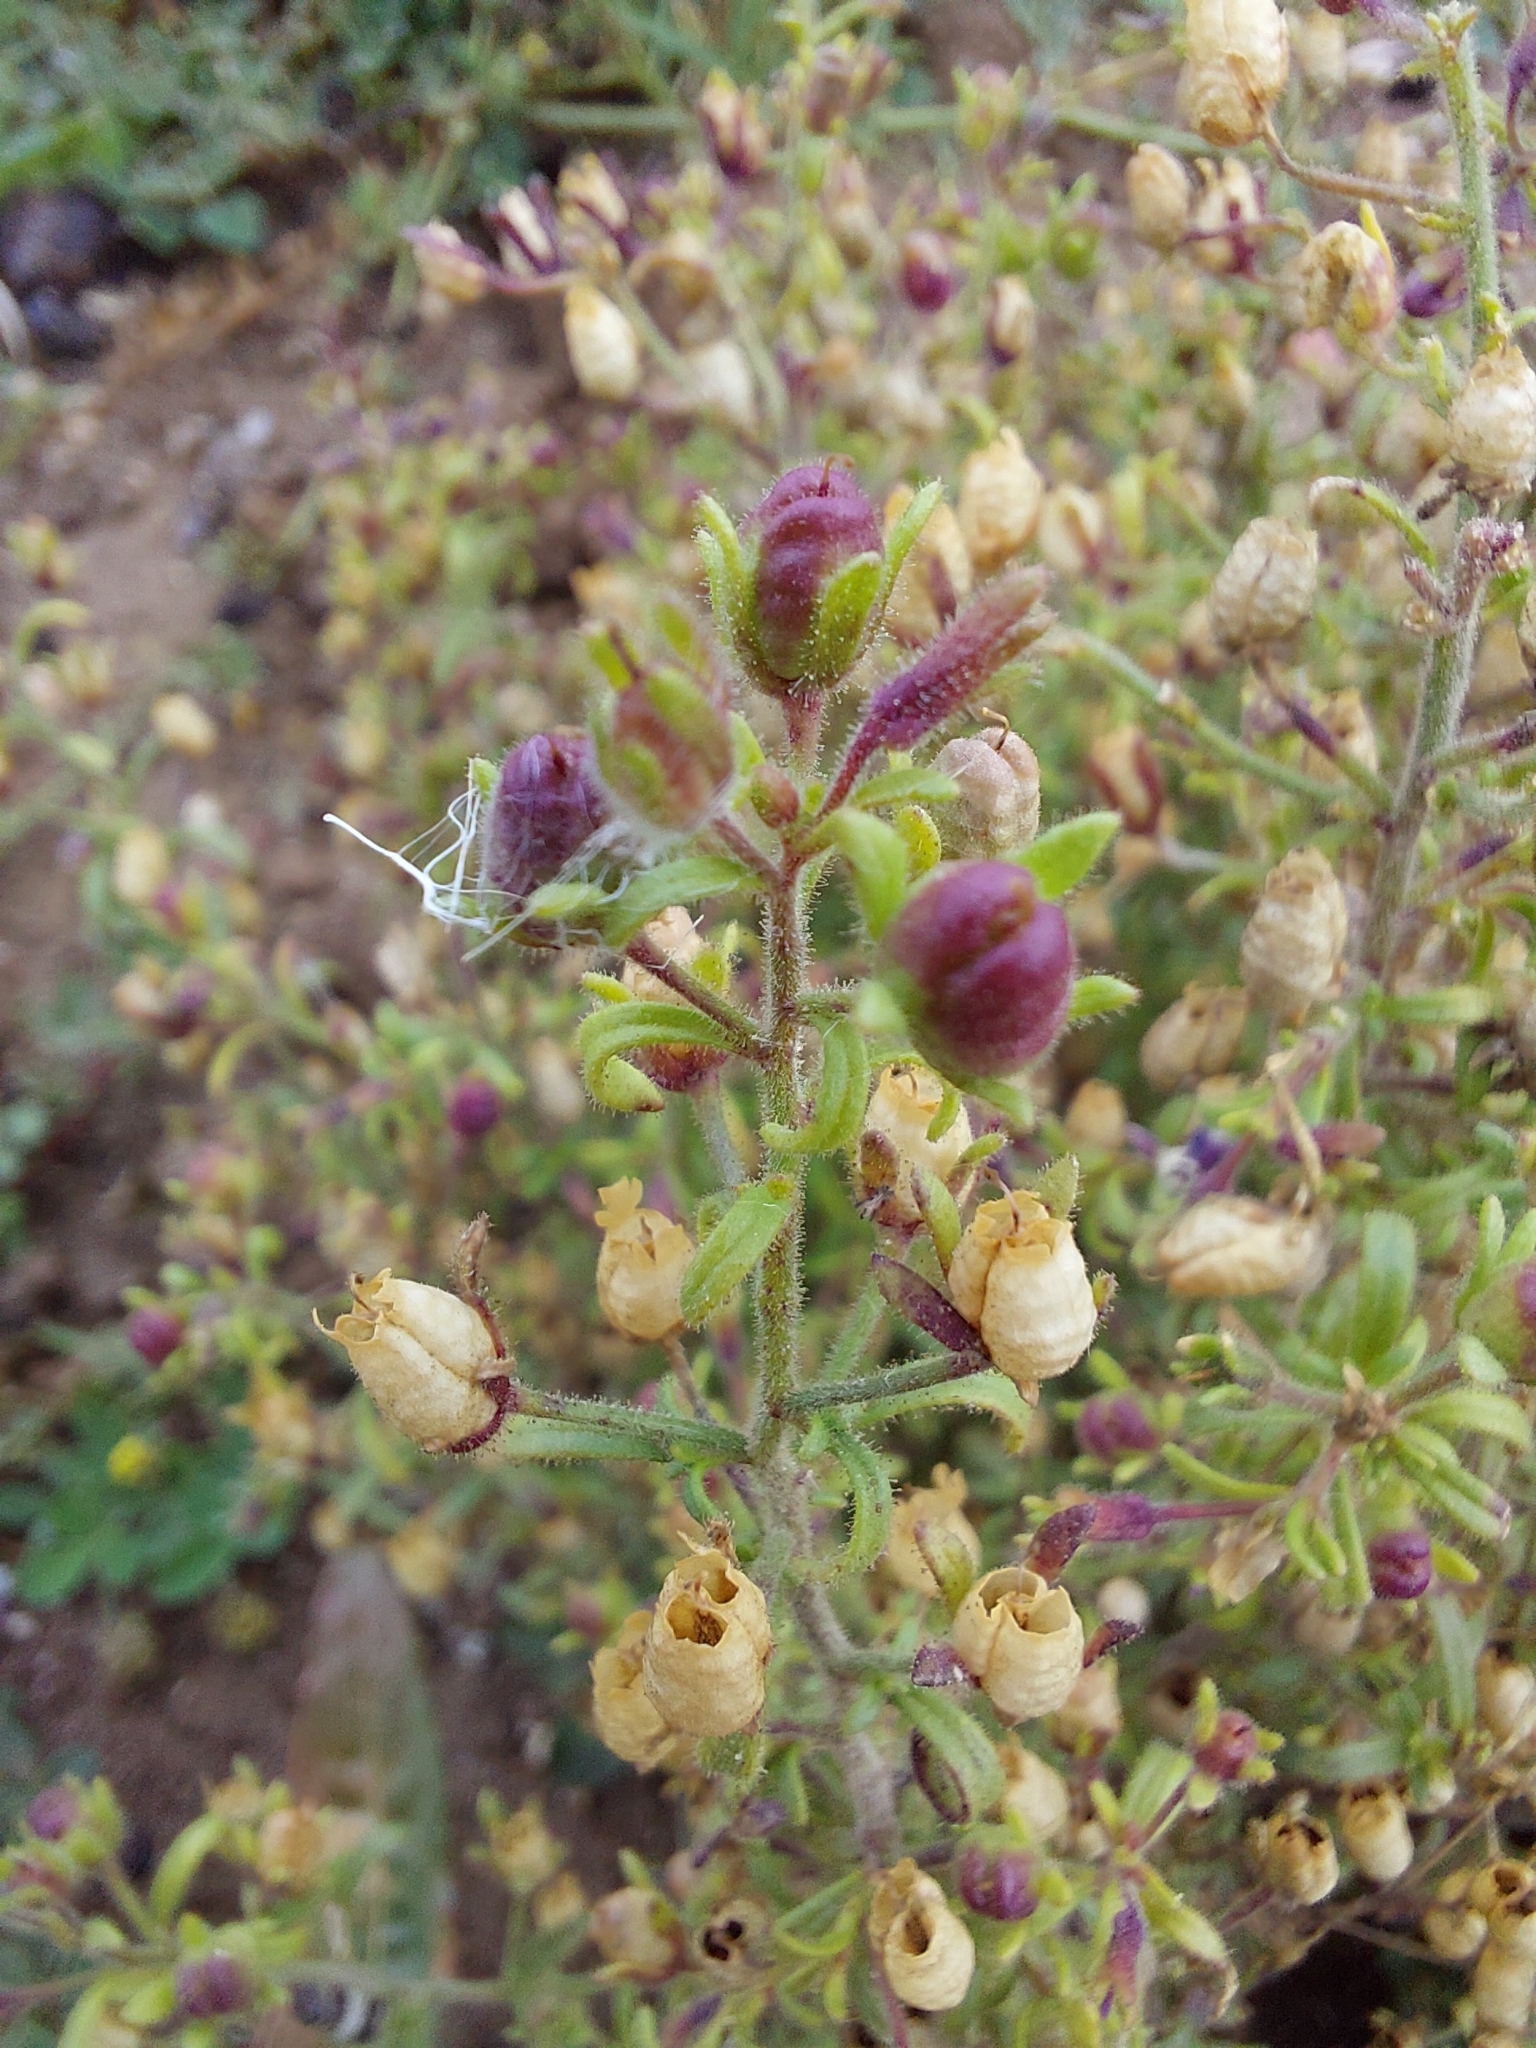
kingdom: Plantae
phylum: Tracheophyta
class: Magnoliopsida
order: Lamiales
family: Plantaginaceae
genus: Chaenorhinum
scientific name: Chaenorhinum minus
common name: Dwarf snapdragon
